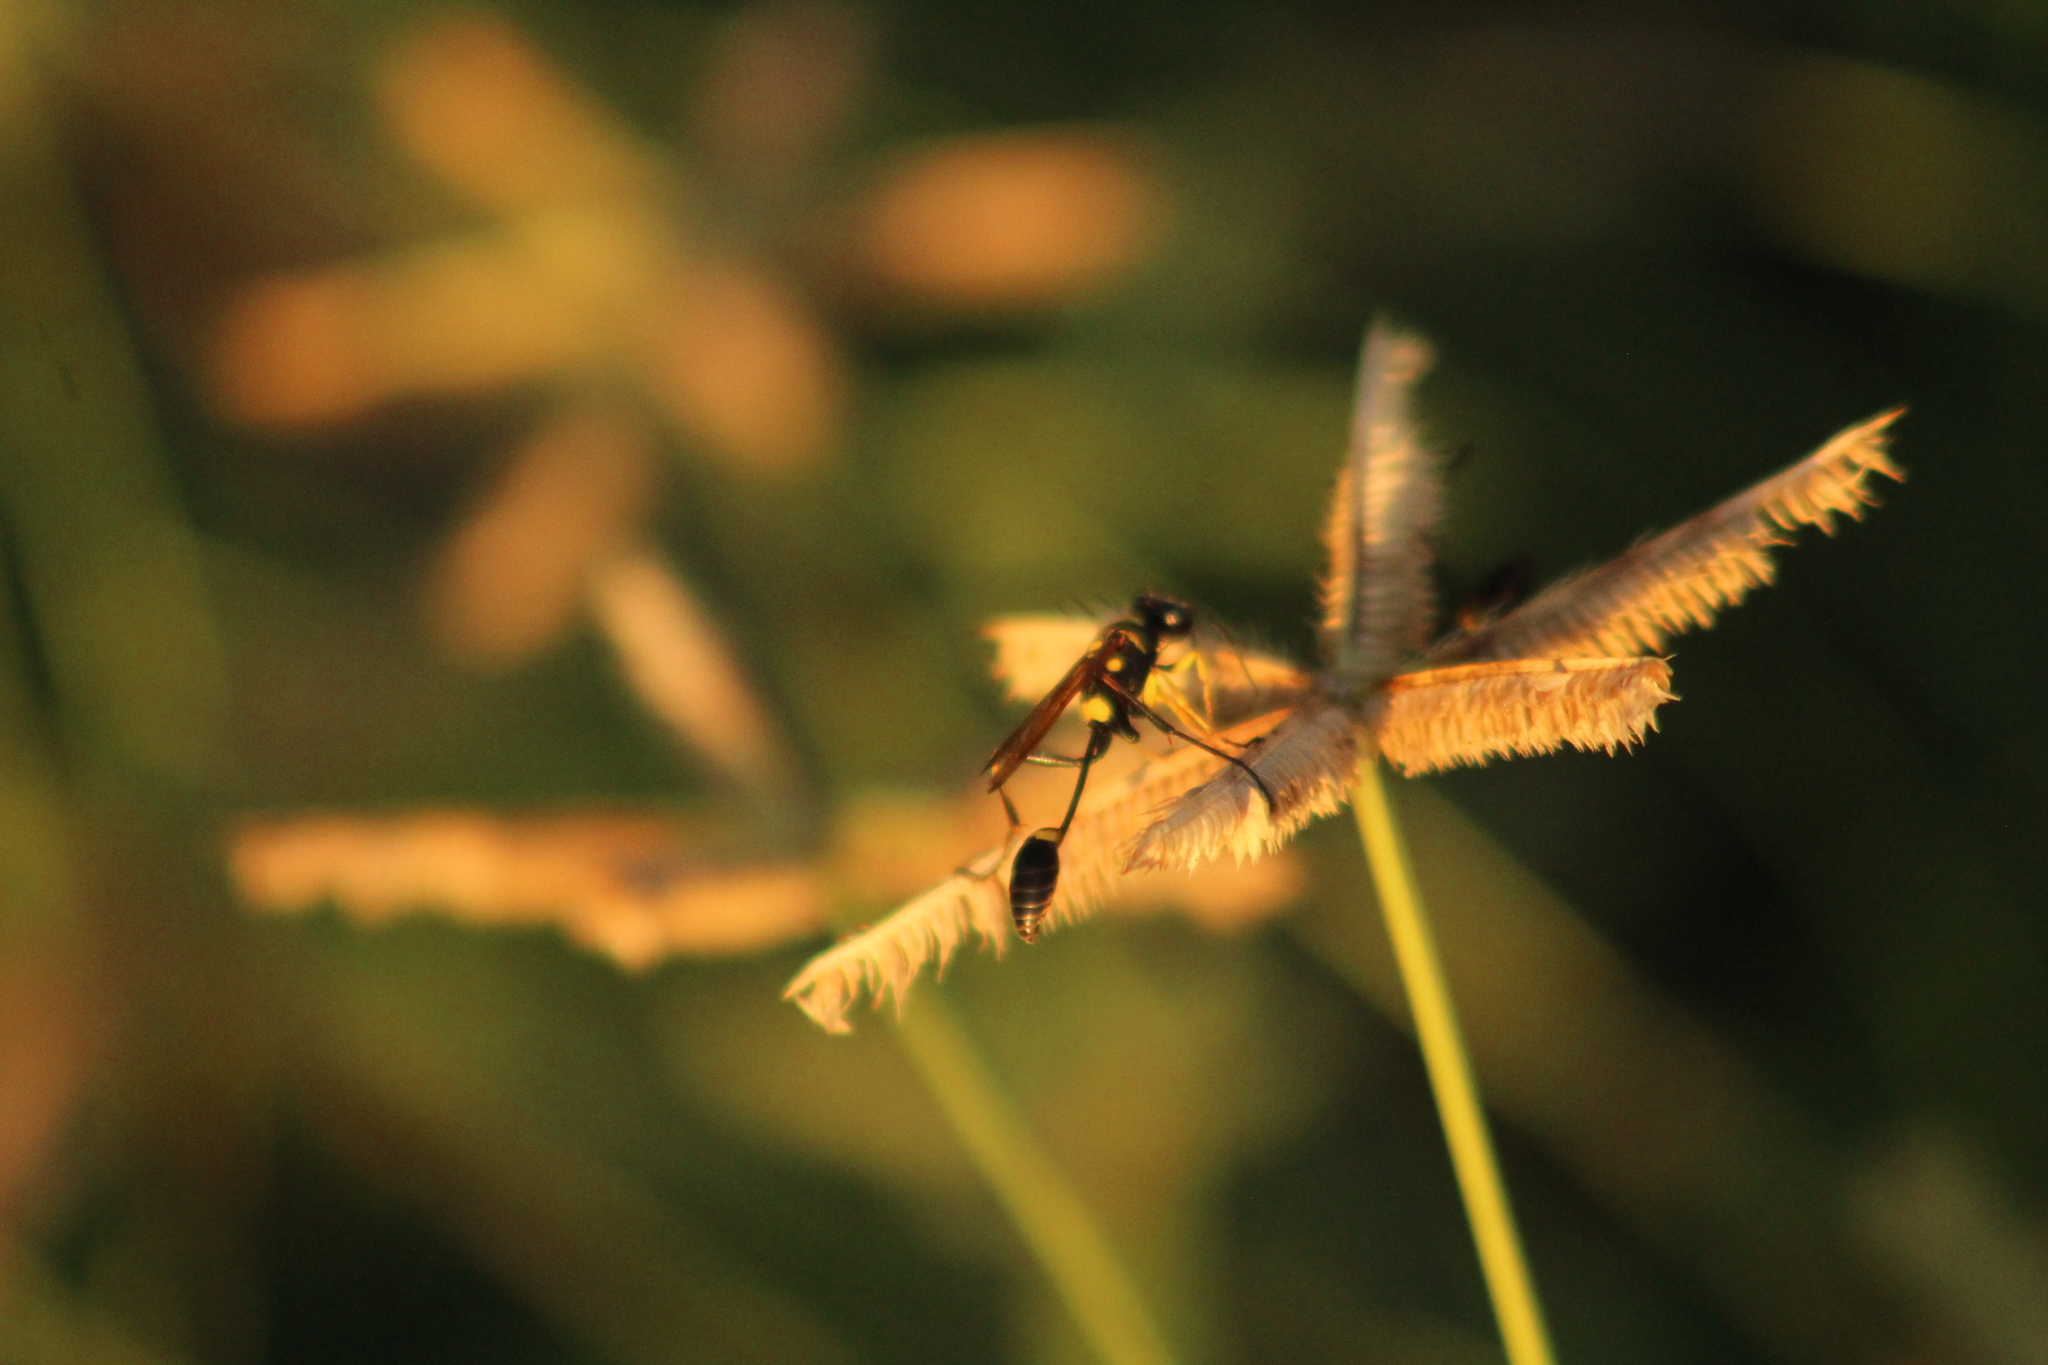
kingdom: Animalia
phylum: Arthropoda
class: Insecta
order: Hymenoptera
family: Sphecidae
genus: Sceliphron
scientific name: Sceliphron assimile
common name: Clayman's mud dauber
